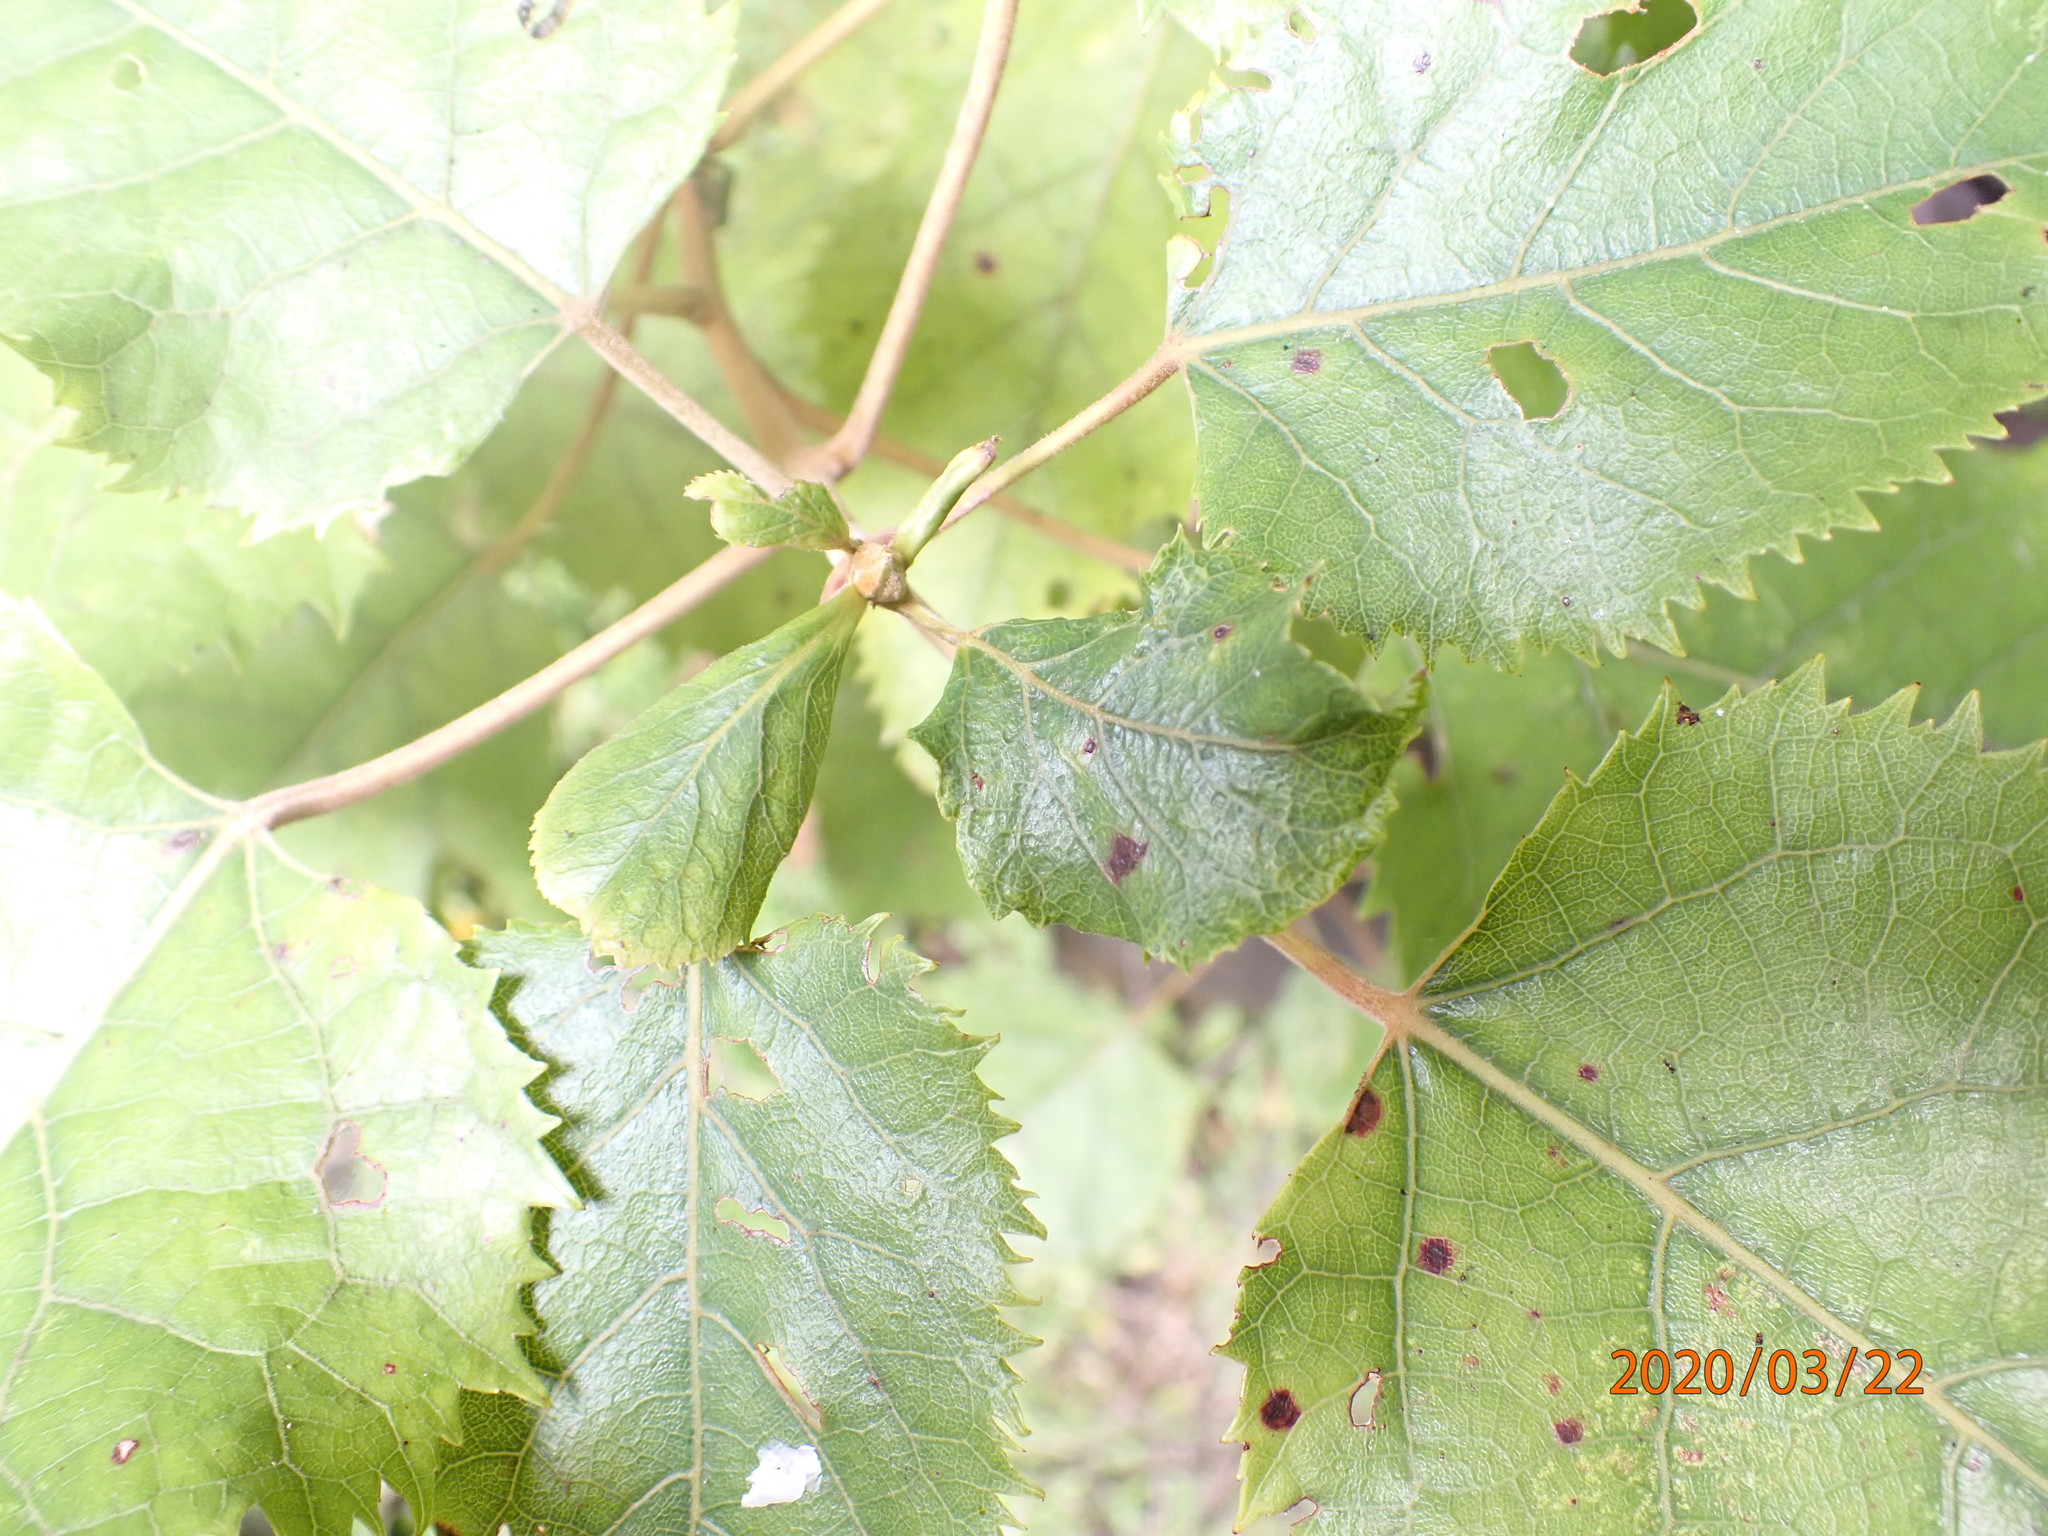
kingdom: Plantae
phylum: Tracheophyta
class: Magnoliopsida
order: Oxalidales
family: Elaeocarpaceae
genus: Aristotelia
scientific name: Aristotelia serrata
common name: New zealand wineberry
